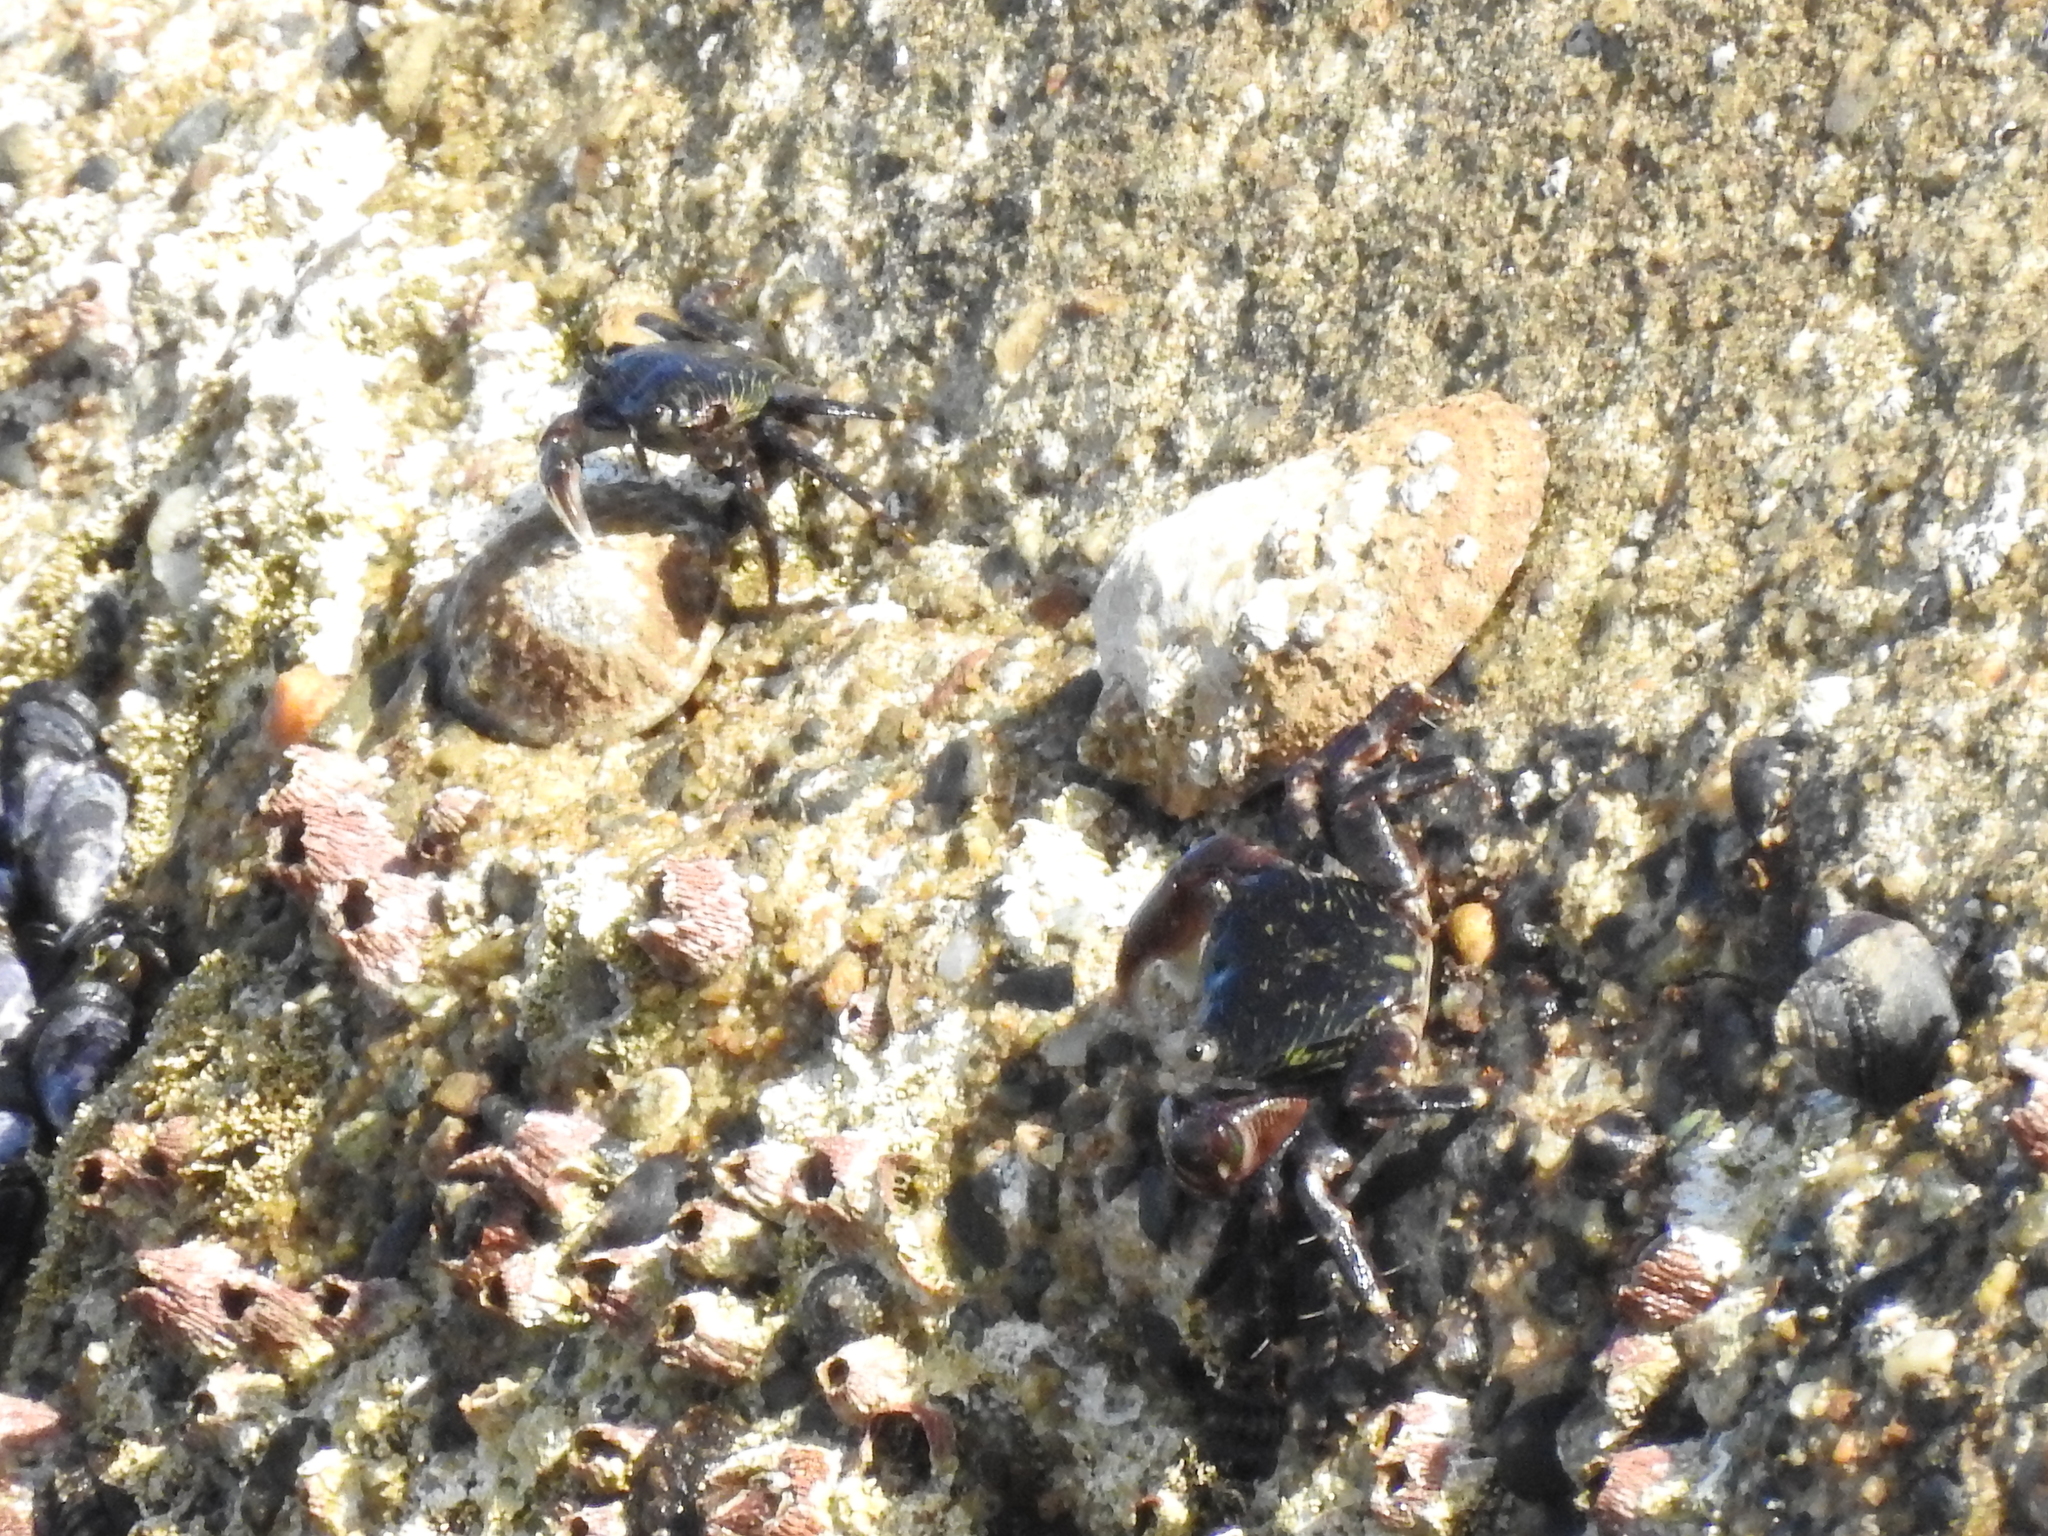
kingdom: Animalia
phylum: Arthropoda
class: Malacostraca
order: Decapoda
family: Grapsidae
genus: Pachygrapsus
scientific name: Pachygrapsus crassipes
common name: Striped shore crab
